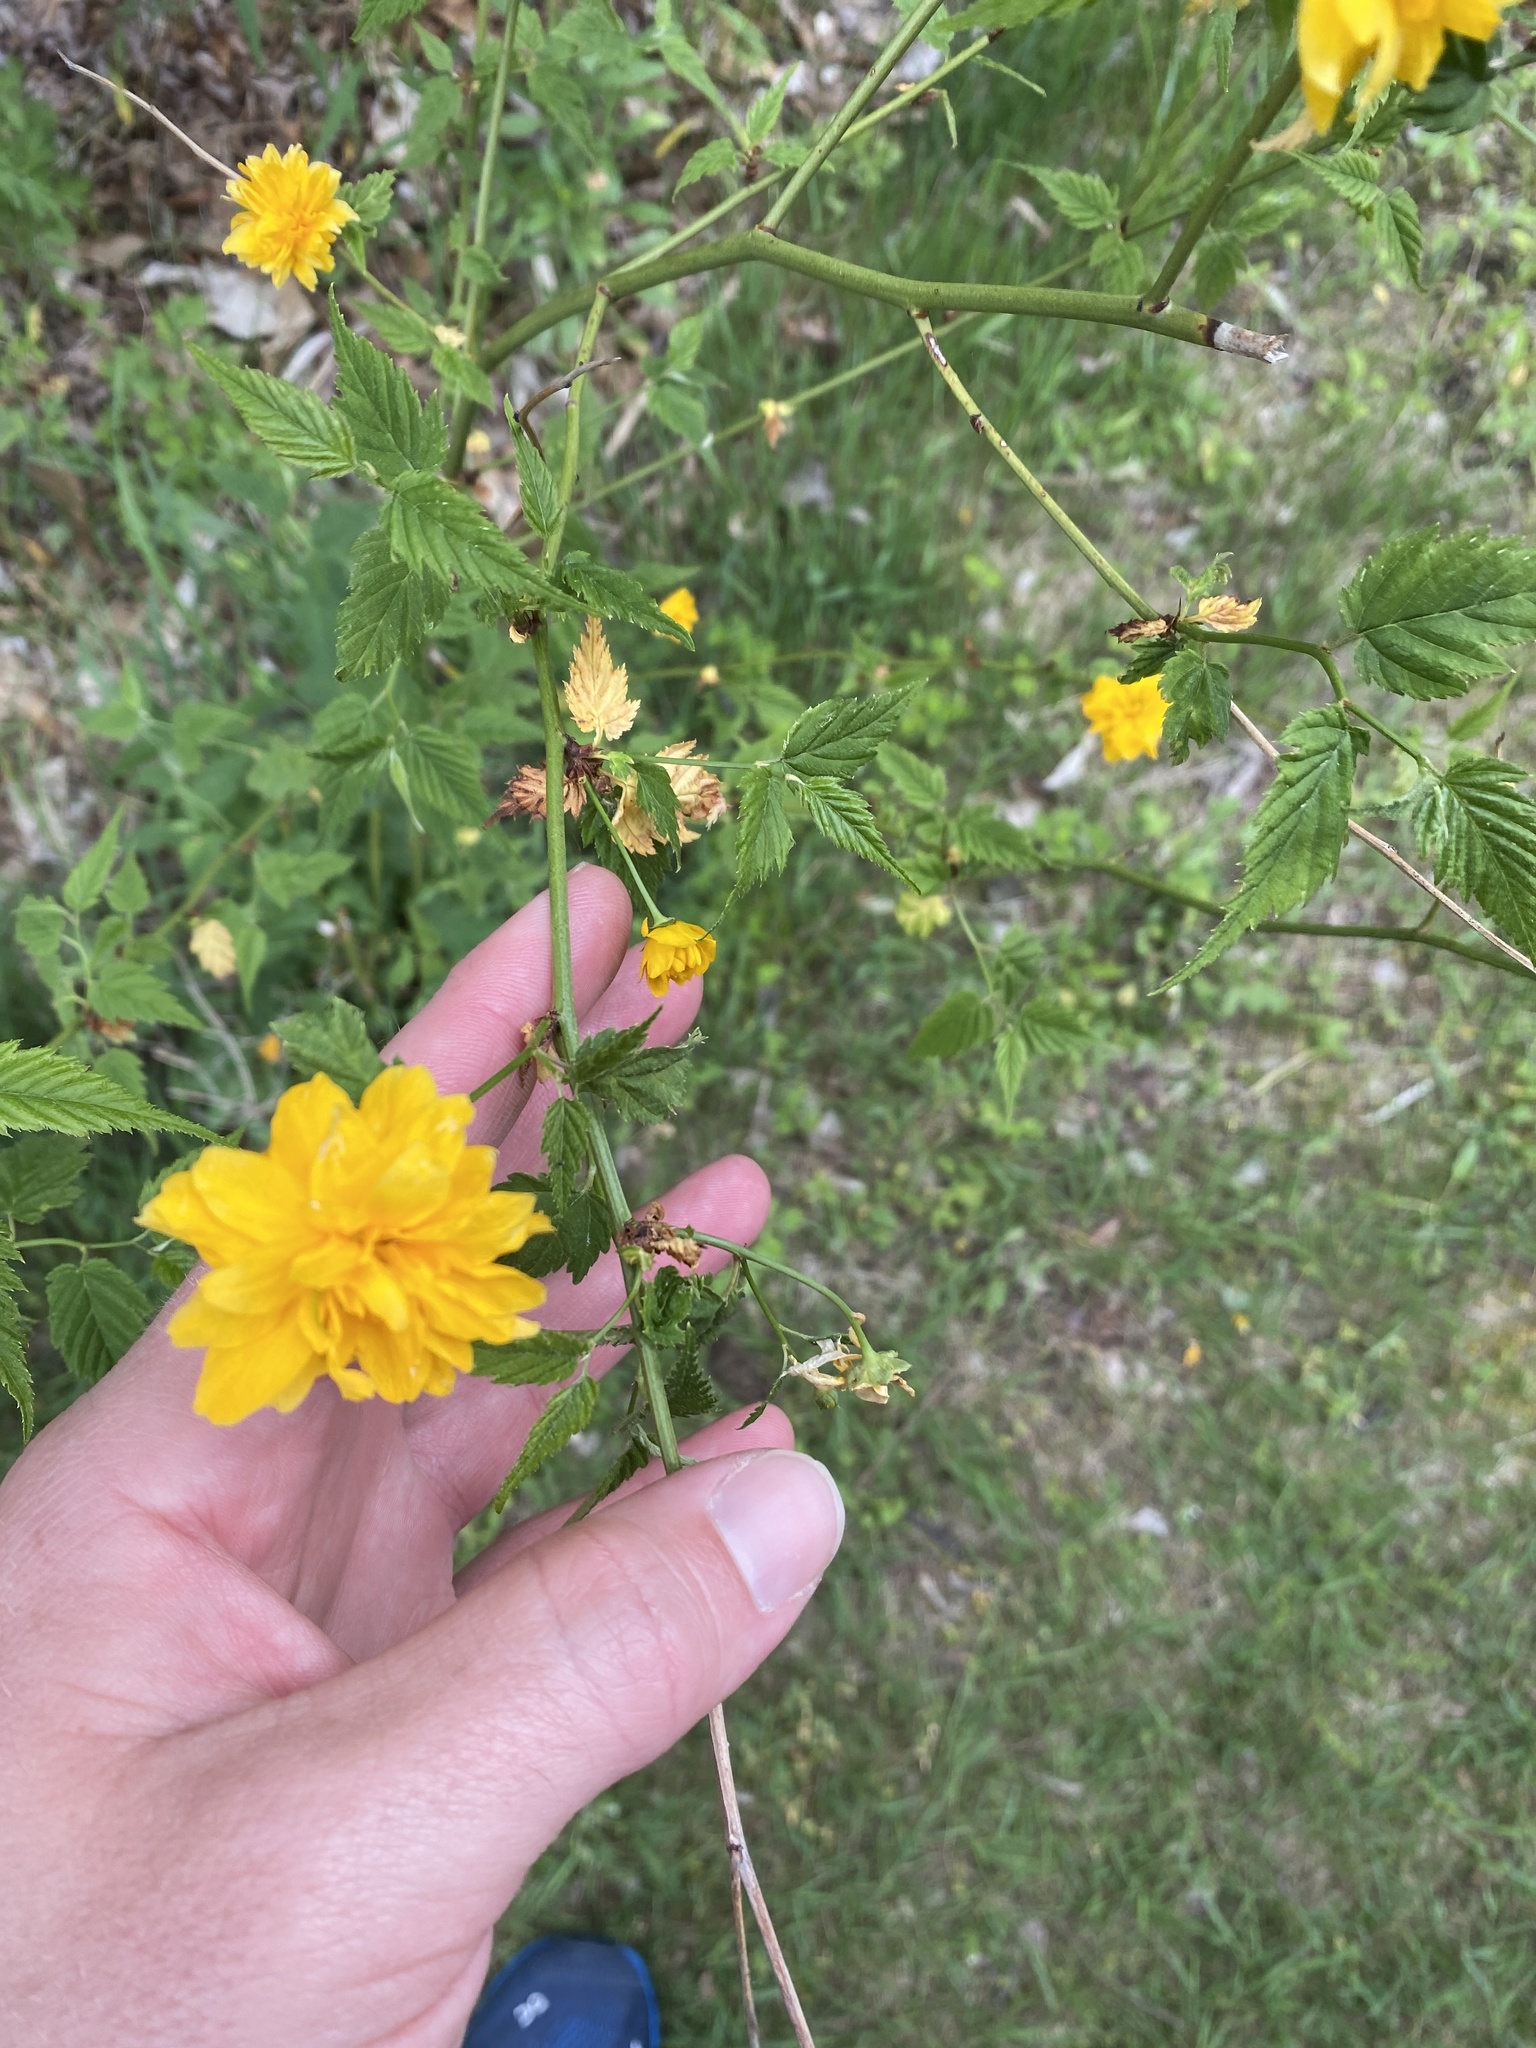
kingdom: Plantae
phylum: Tracheophyta
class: Magnoliopsida
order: Rosales
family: Rosaceae
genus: Kerria
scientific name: Kerria japonica
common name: Japanese kerria
